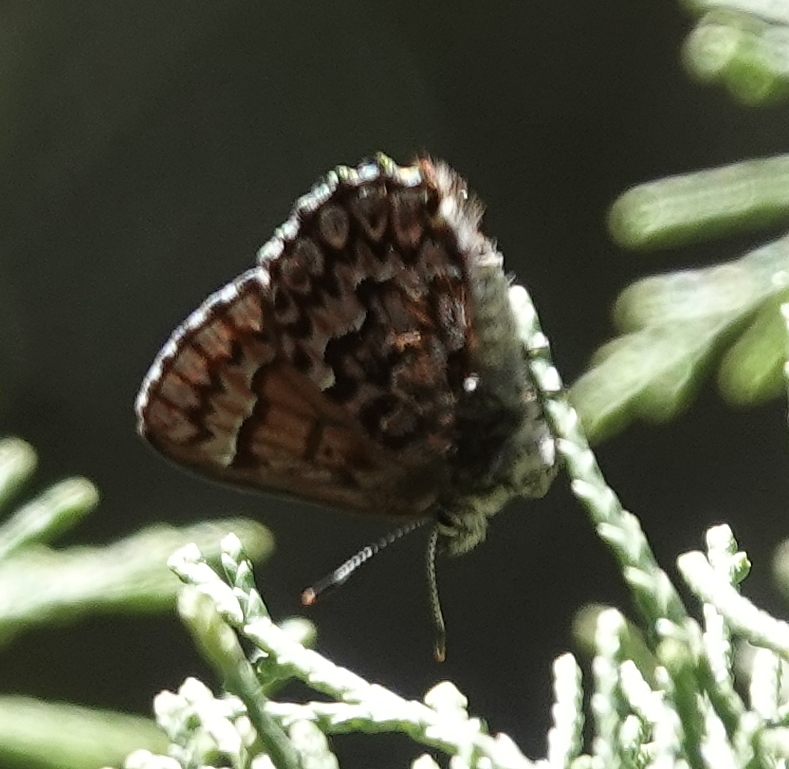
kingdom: Animalia
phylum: Arthropoda
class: Insecta
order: Lepidoptera
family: Lycaenidae
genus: Incisalia
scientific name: Incisalia eryphon
